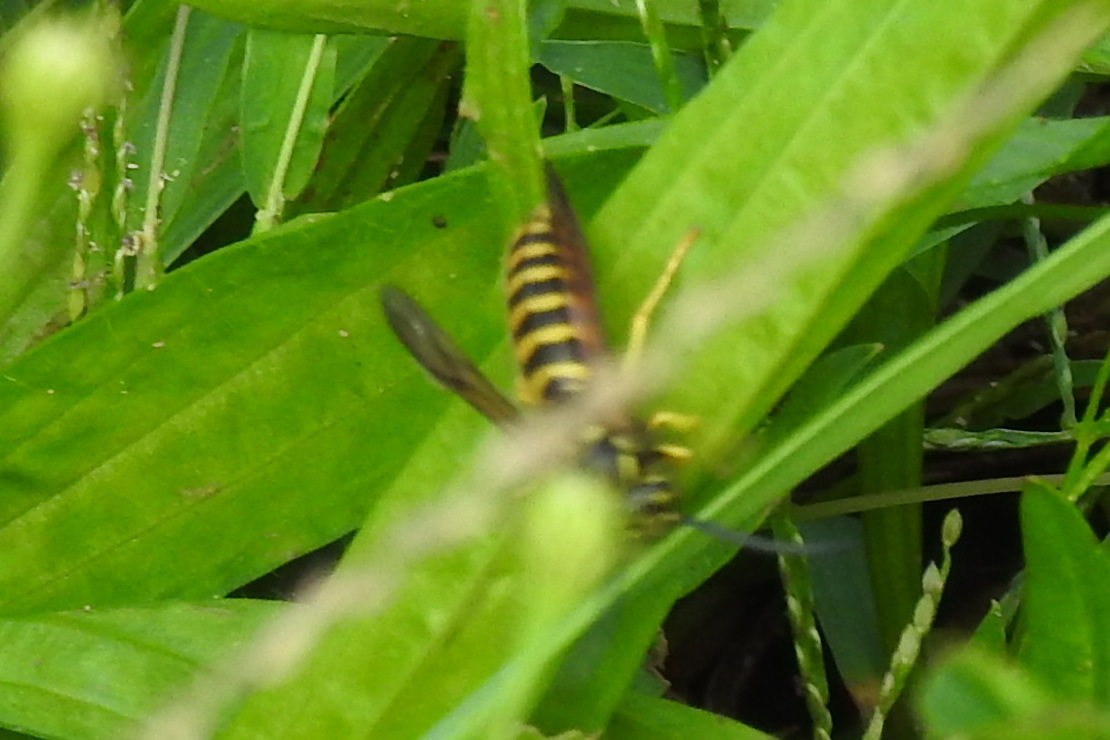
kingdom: Animalia
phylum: Arthropoda
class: Insecta
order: Hymenoptera
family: Vespidae
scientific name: Vespidae
